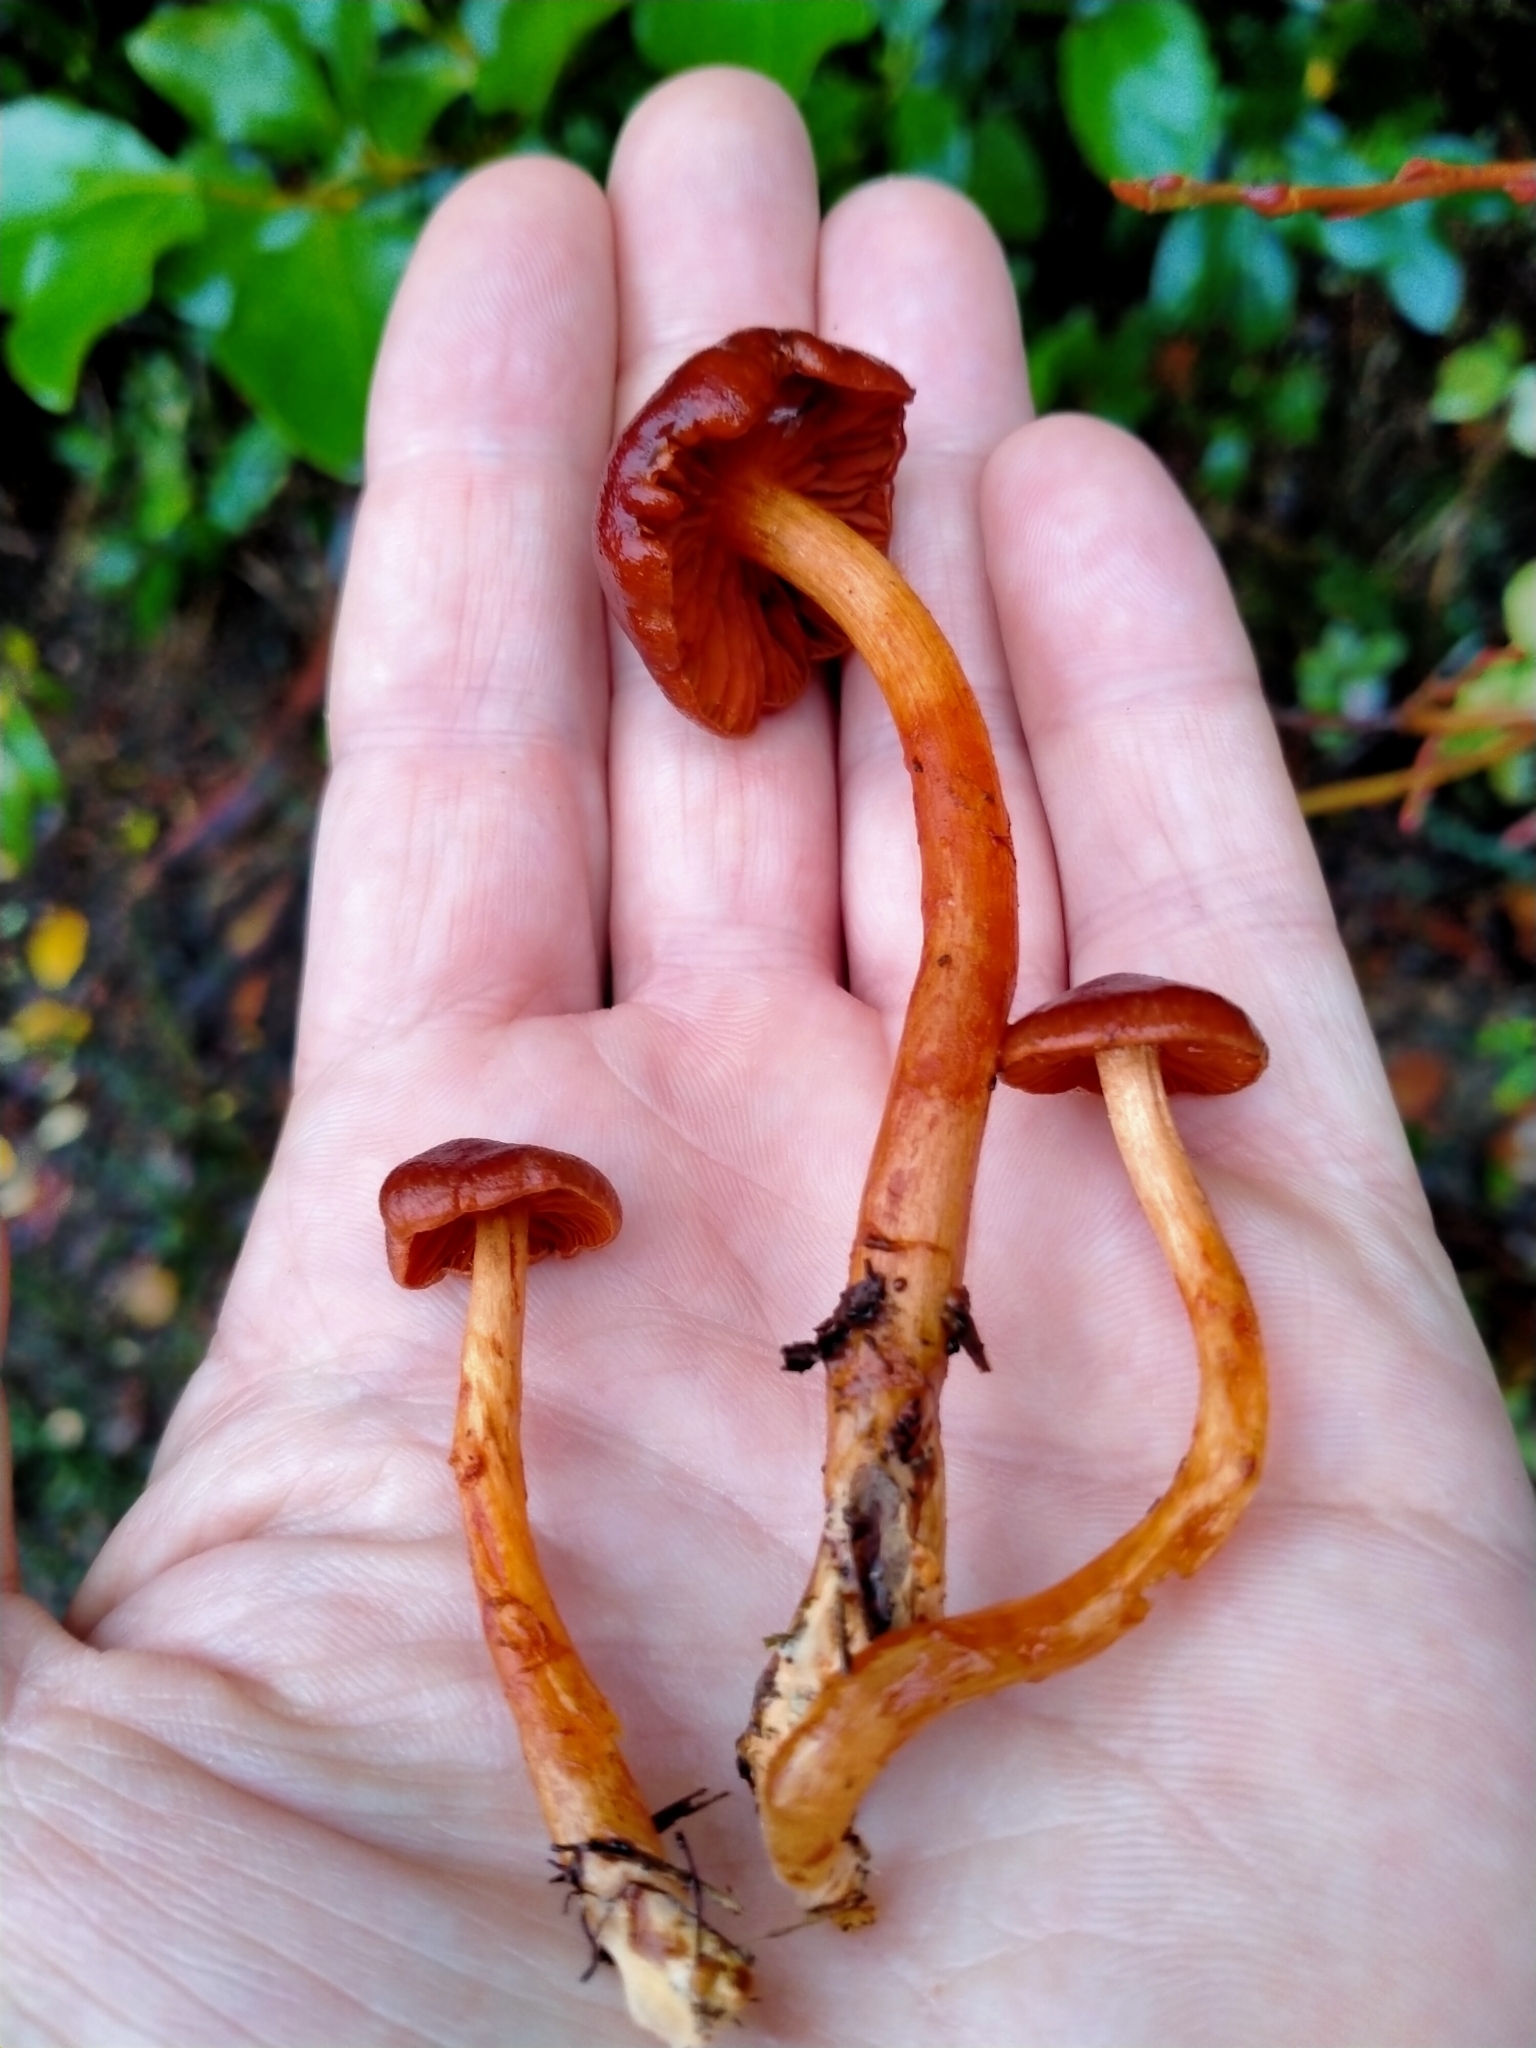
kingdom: Fungi
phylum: Basidiomycota
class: Agaricomycetes
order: Agaricales
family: Cortinariaceae
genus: Cortinarius
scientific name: Cortinarius
